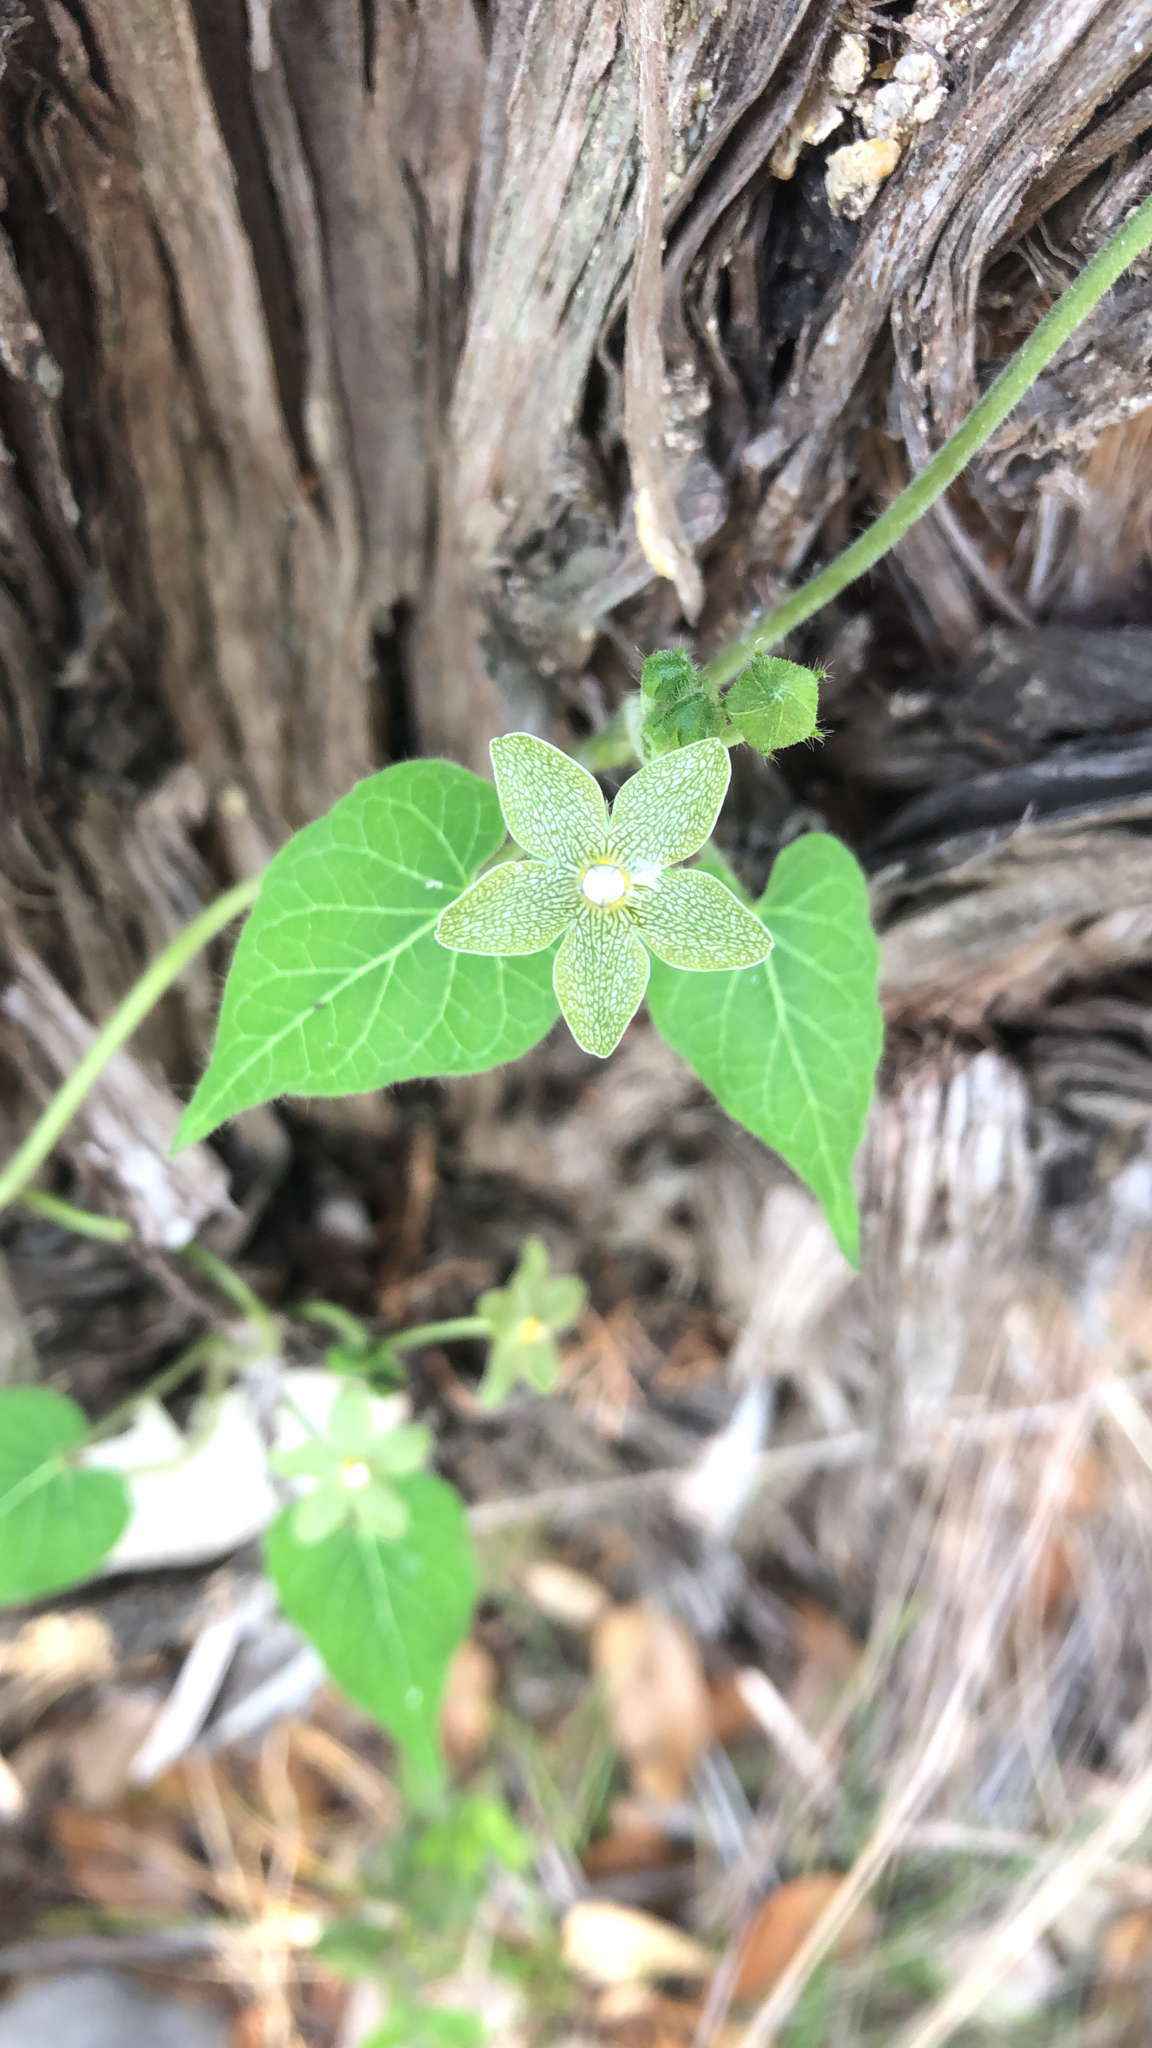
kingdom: Plantae
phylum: Tracheophyta
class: Magnoliopsida
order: Gentianales
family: Apocynaceae
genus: Dictyanthus
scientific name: Dictyanthus reticulatus
